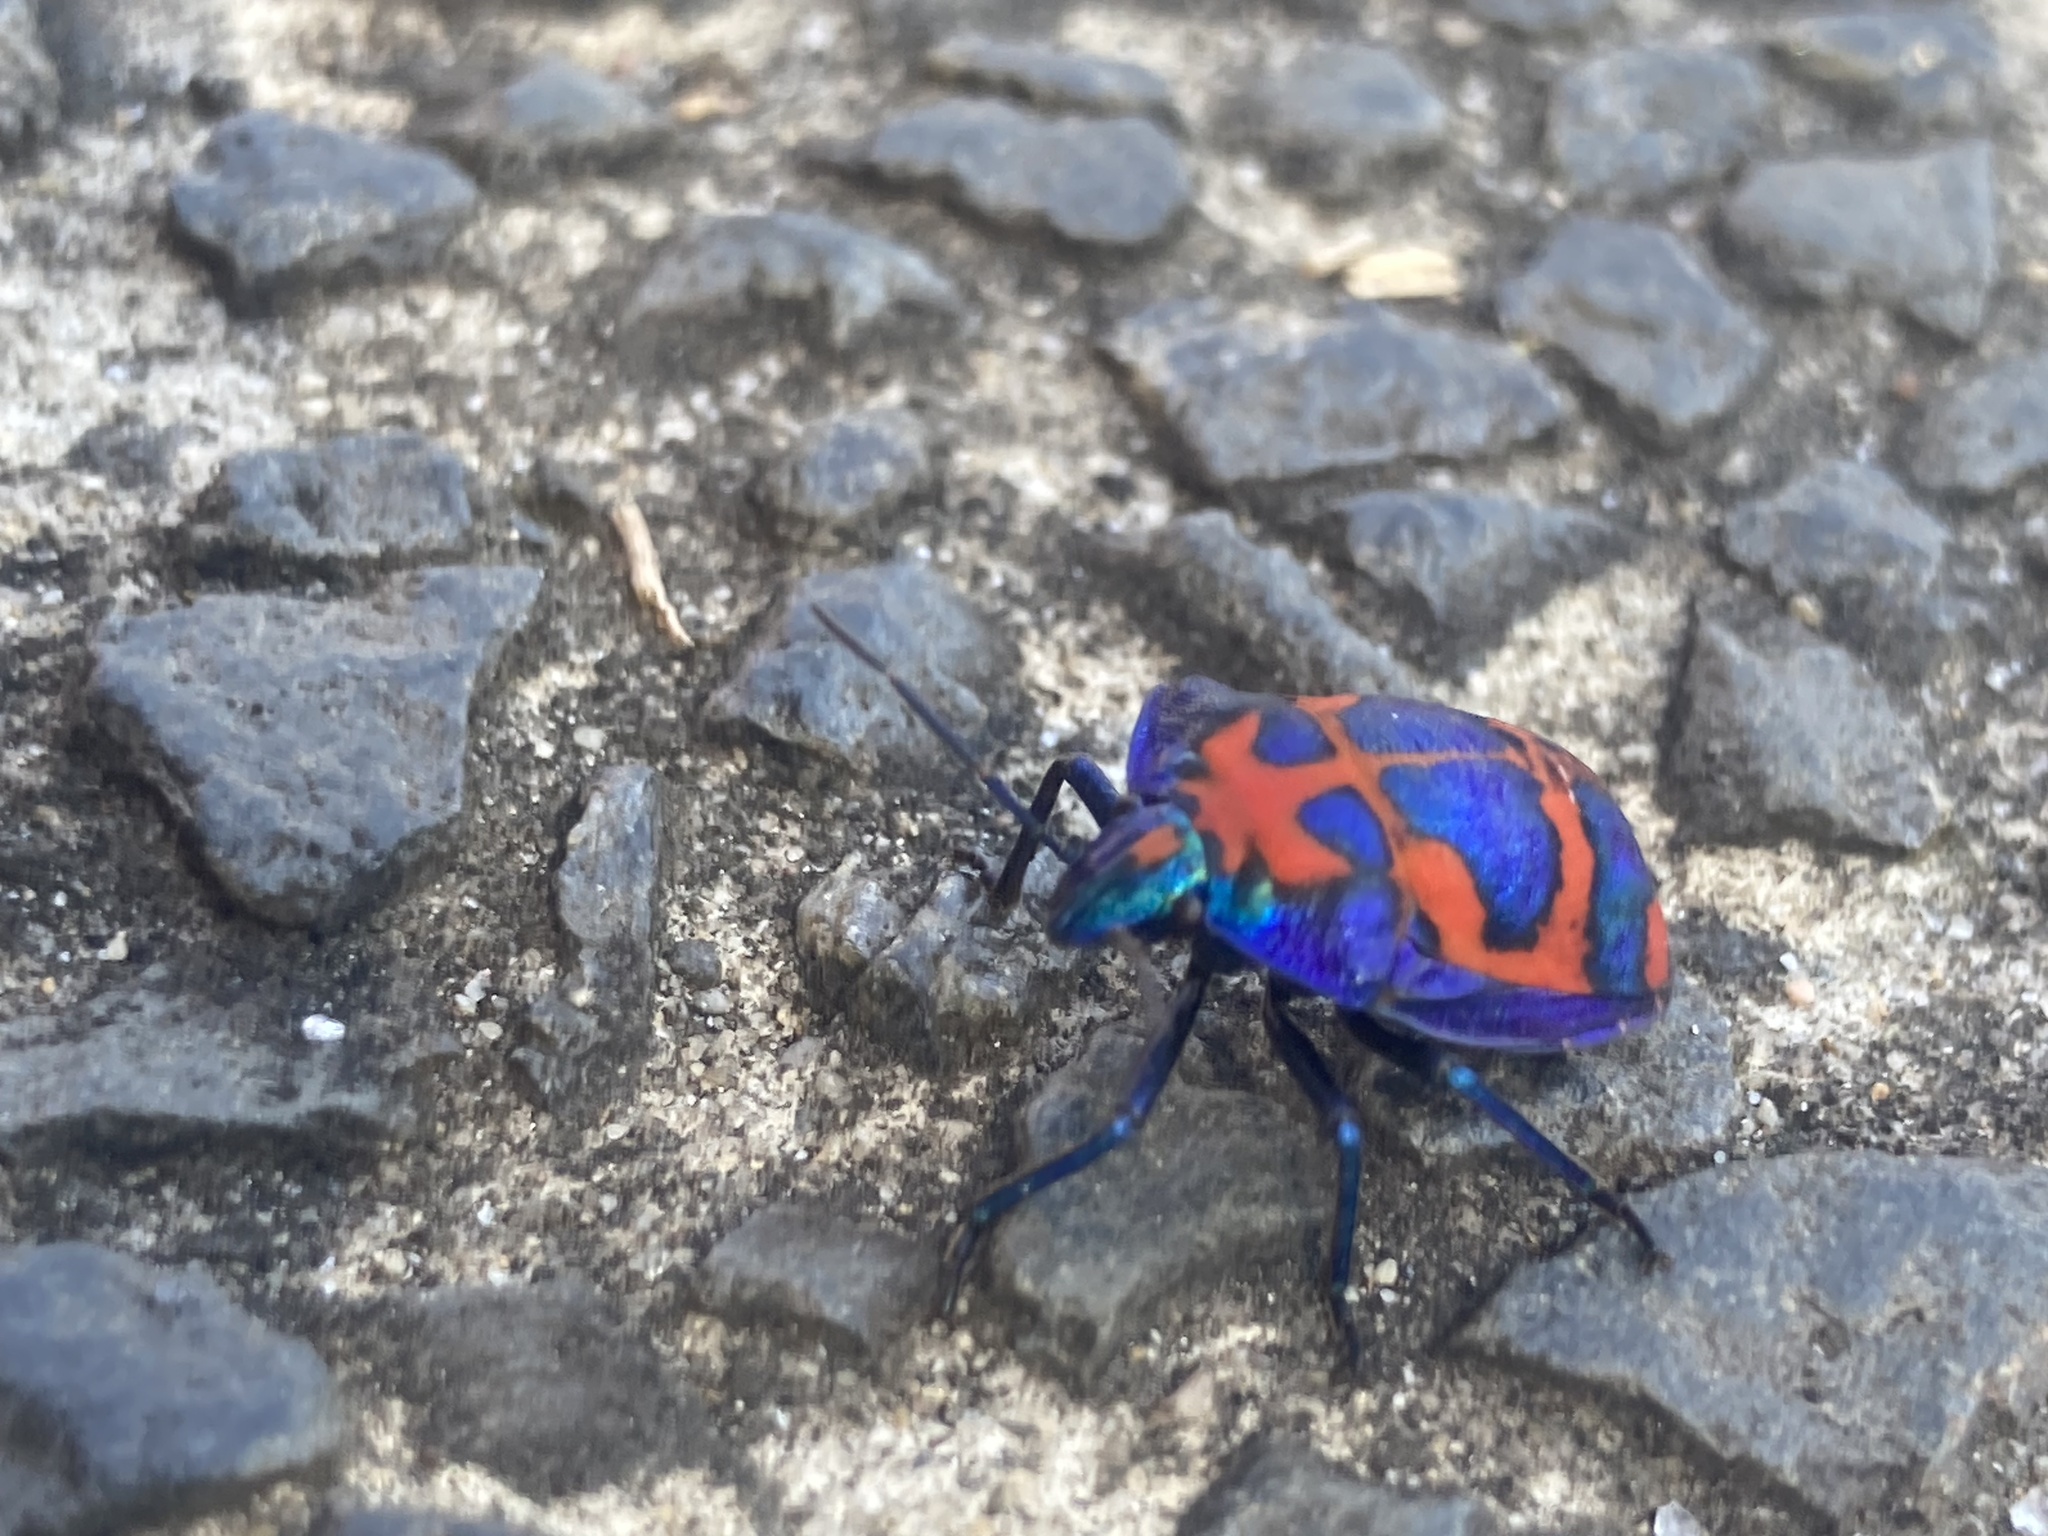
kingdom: Animalia
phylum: Arthropoda
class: Insecta
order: Hemiptera
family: Scutelleridae
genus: Tectocoris
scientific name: Tectocoris diophthalmus
